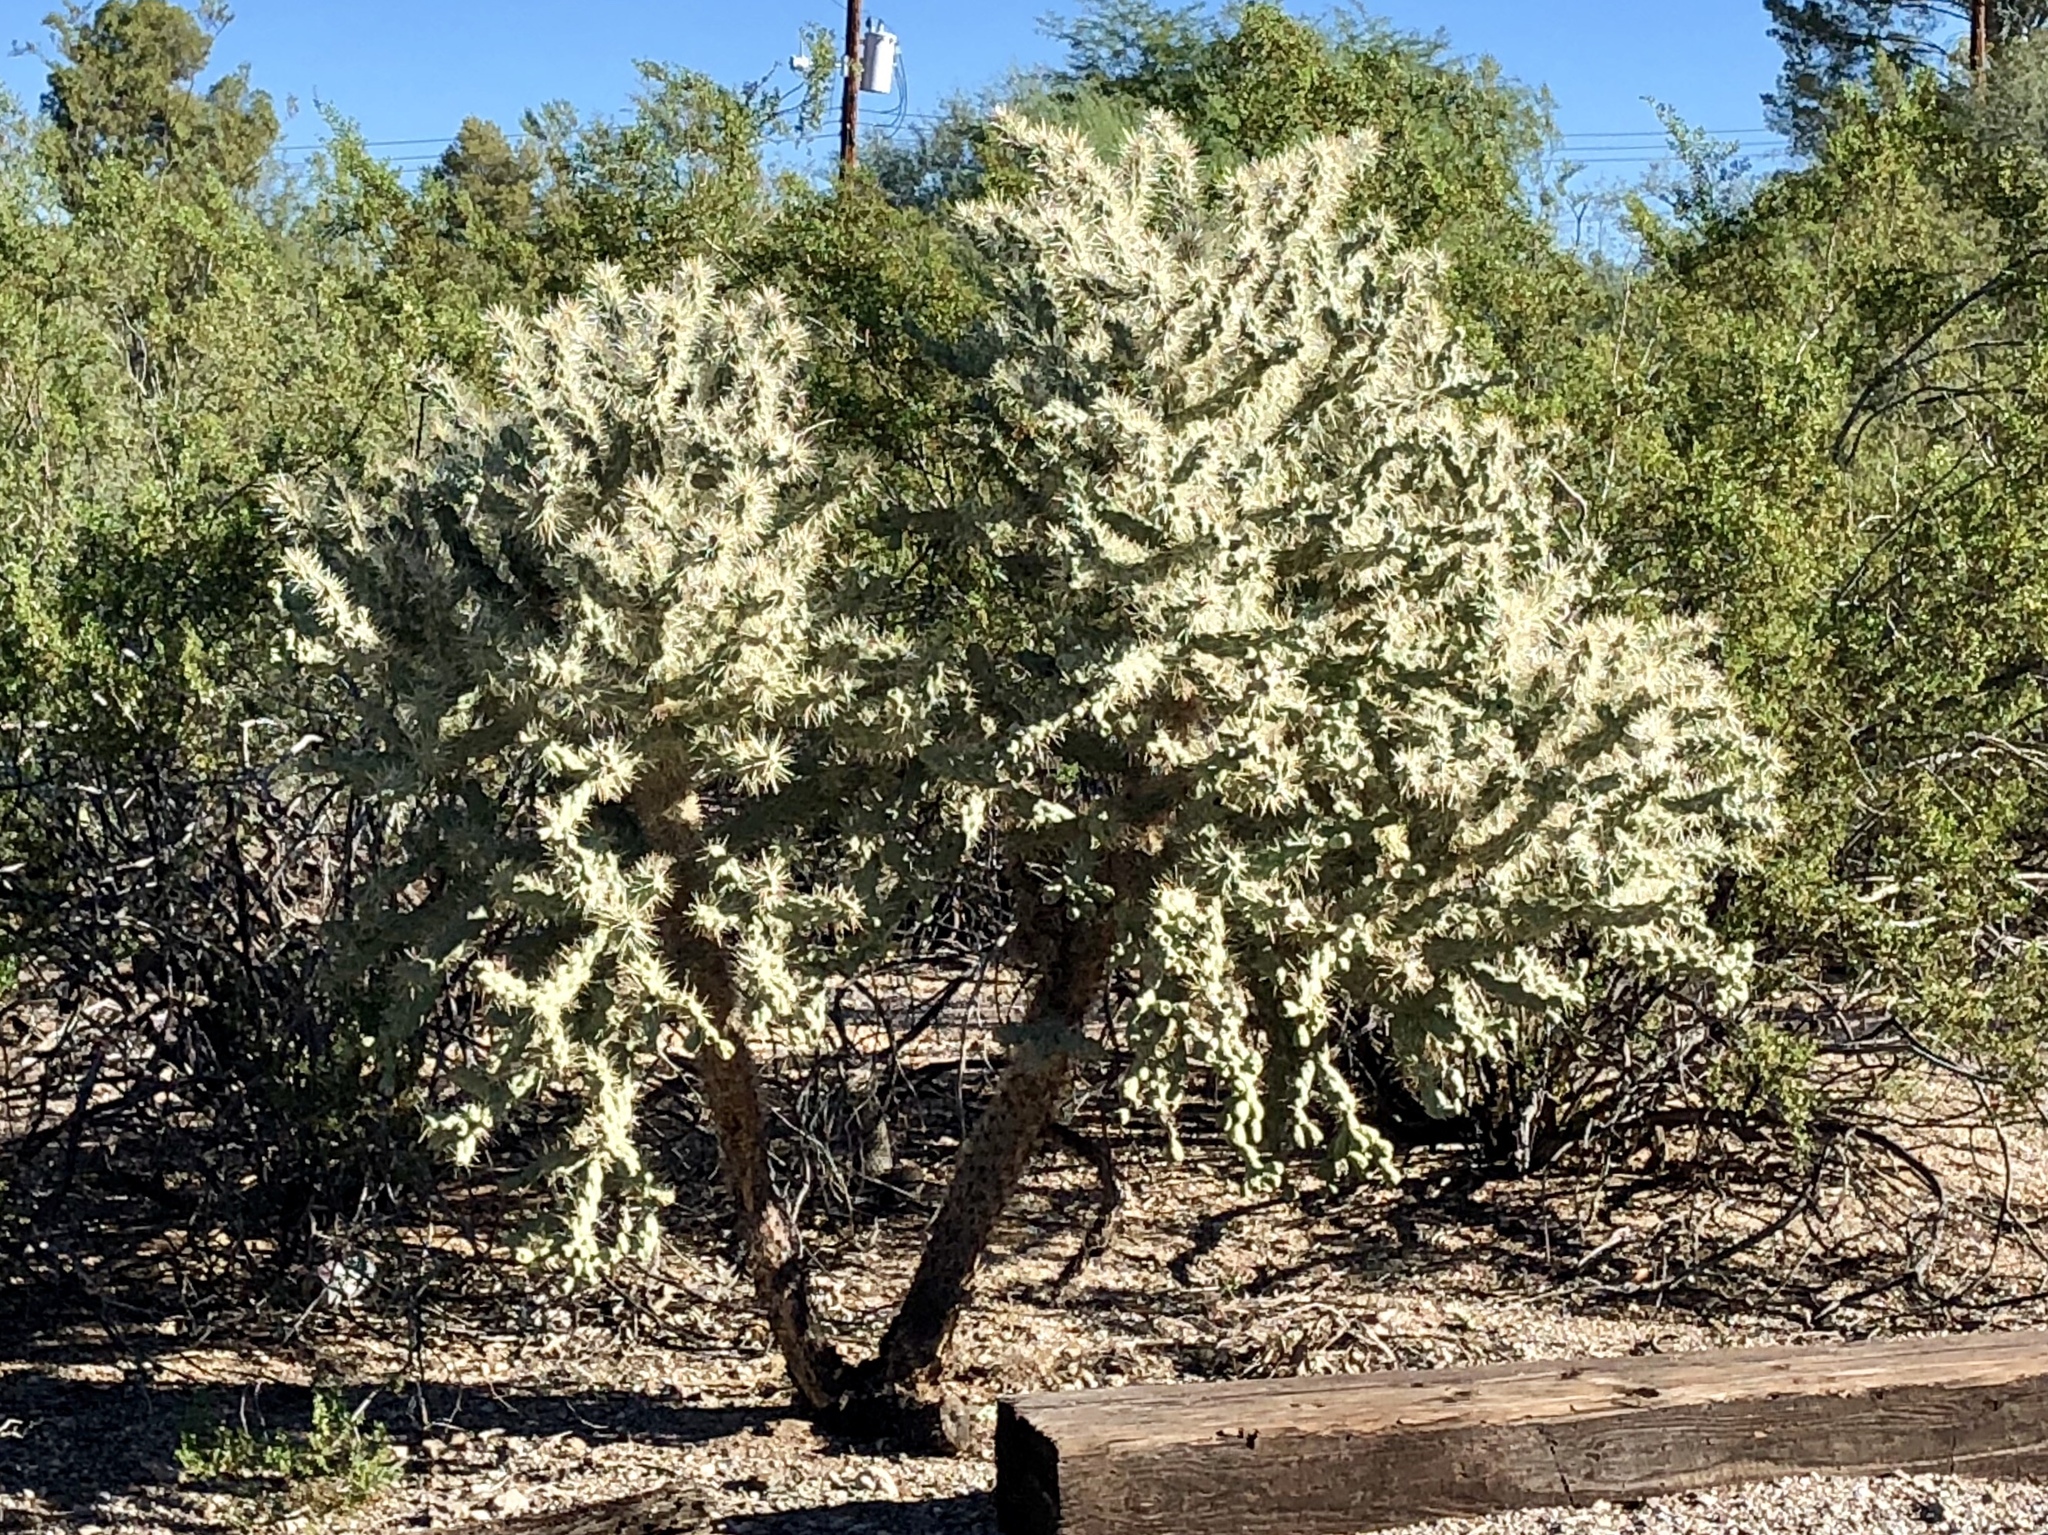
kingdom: Plantae
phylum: Tracheophyta
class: Magnoliopsida
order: Caryophyllales
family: Cactaceae
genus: Cylindropuntia
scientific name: Cylindropuntia fulgida
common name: Jumping cholla
